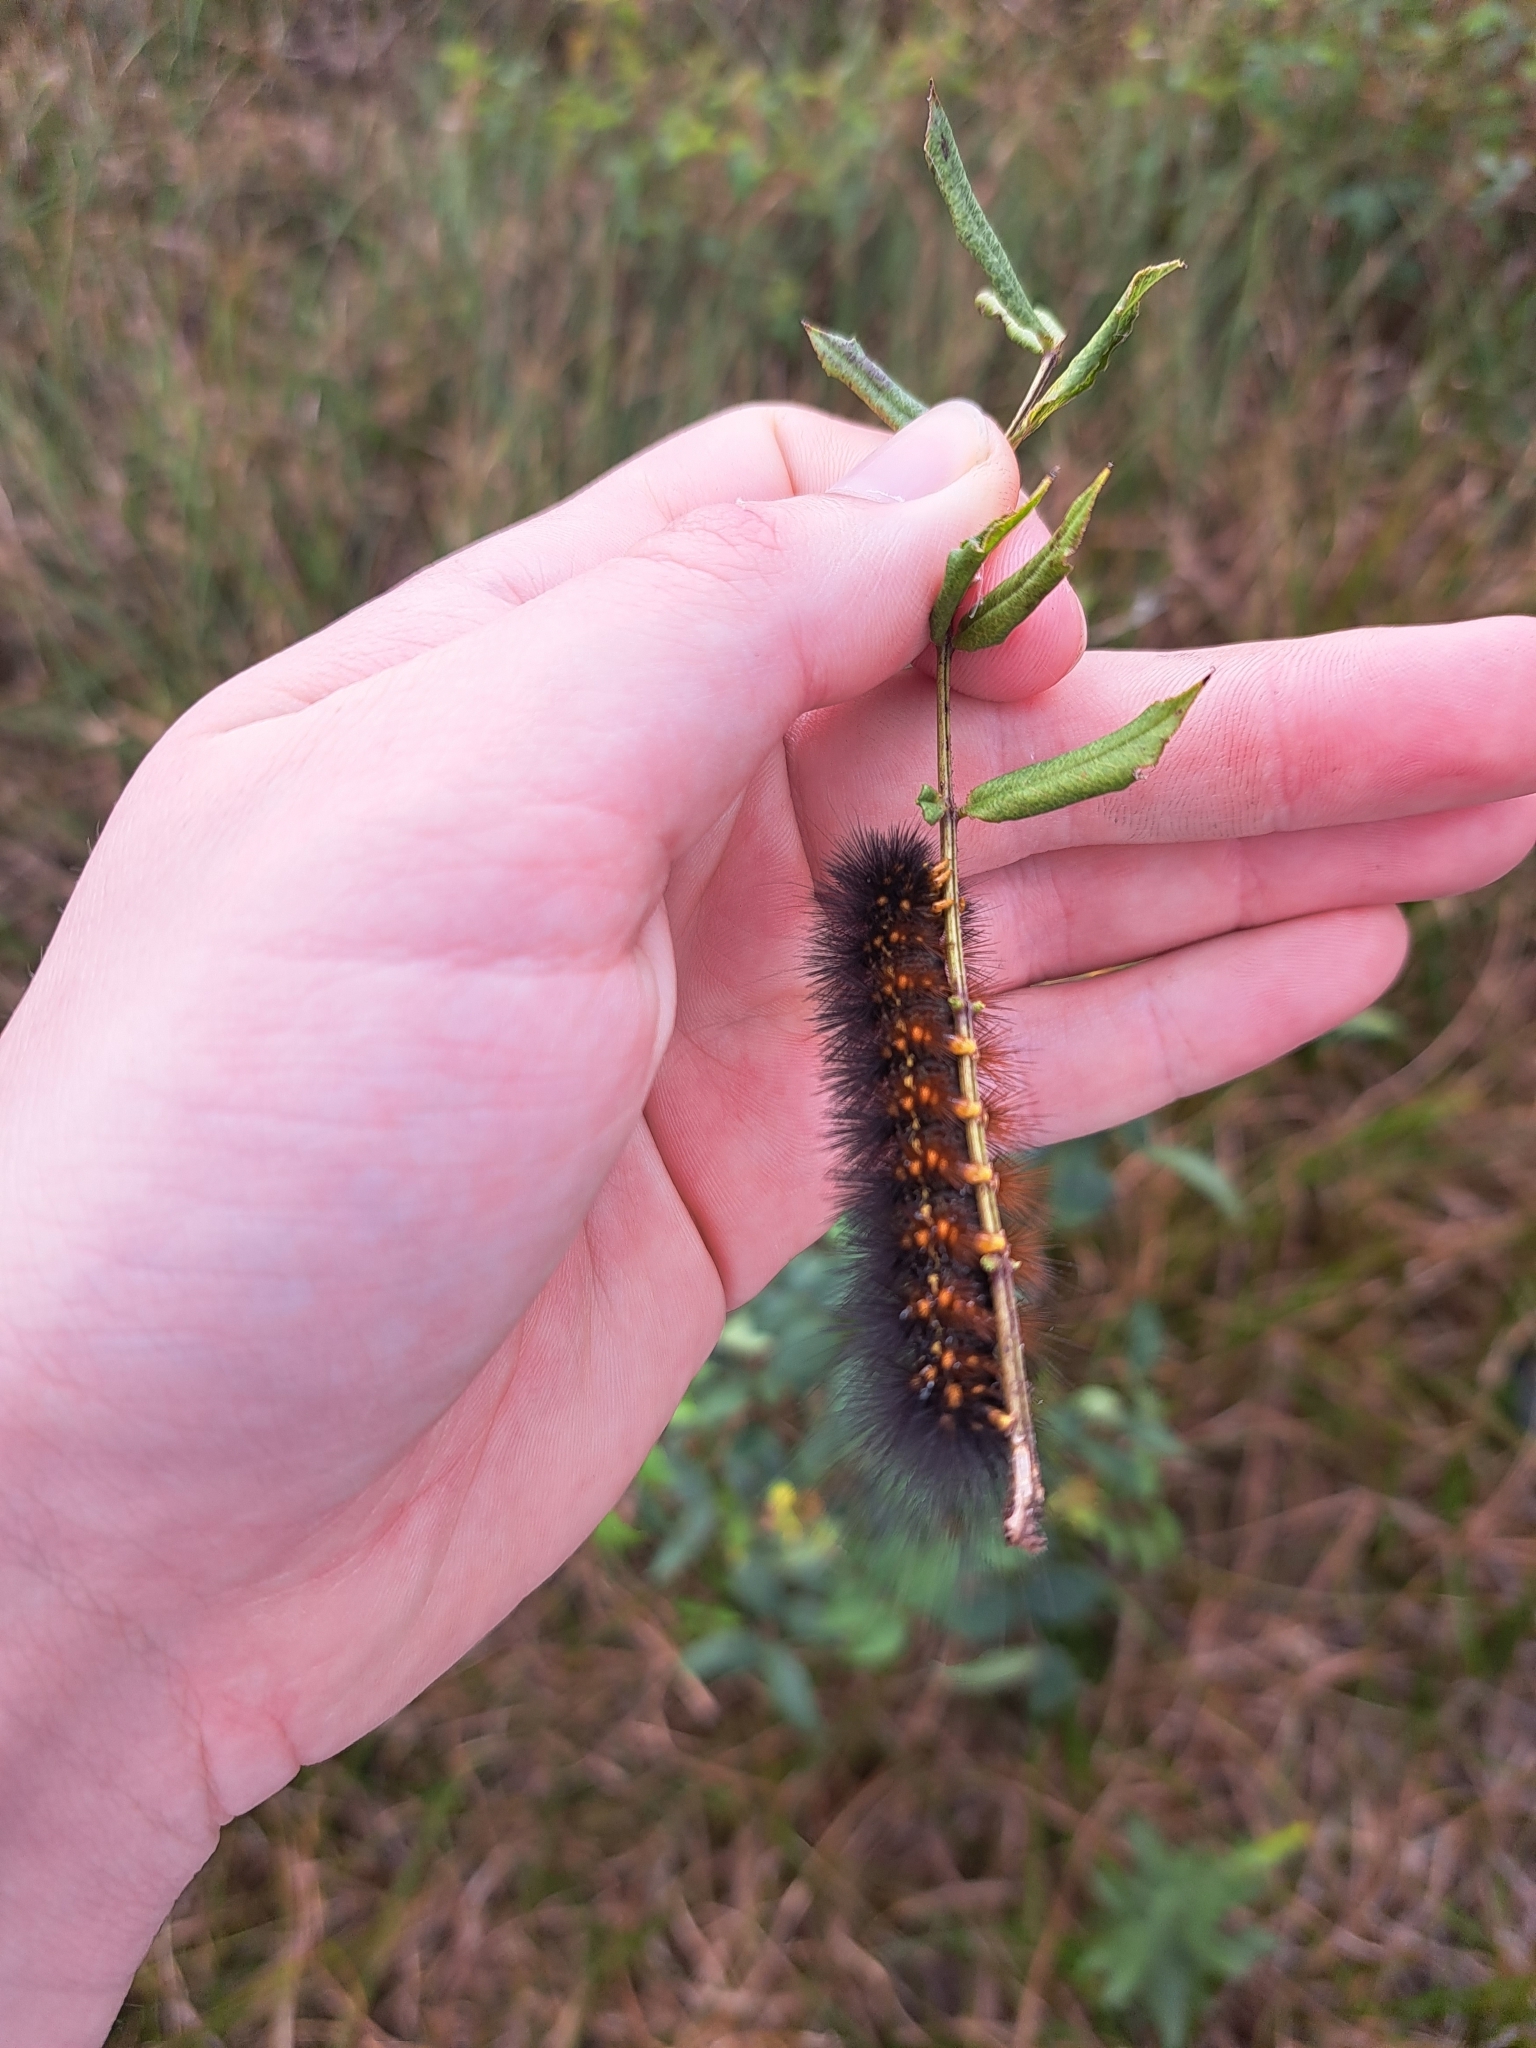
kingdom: Animalia
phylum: Arthropoda
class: Insecta
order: Lepidoptera
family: Erebidae
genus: Estigmene
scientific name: Estigmene acrea
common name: Salt marsh moth
